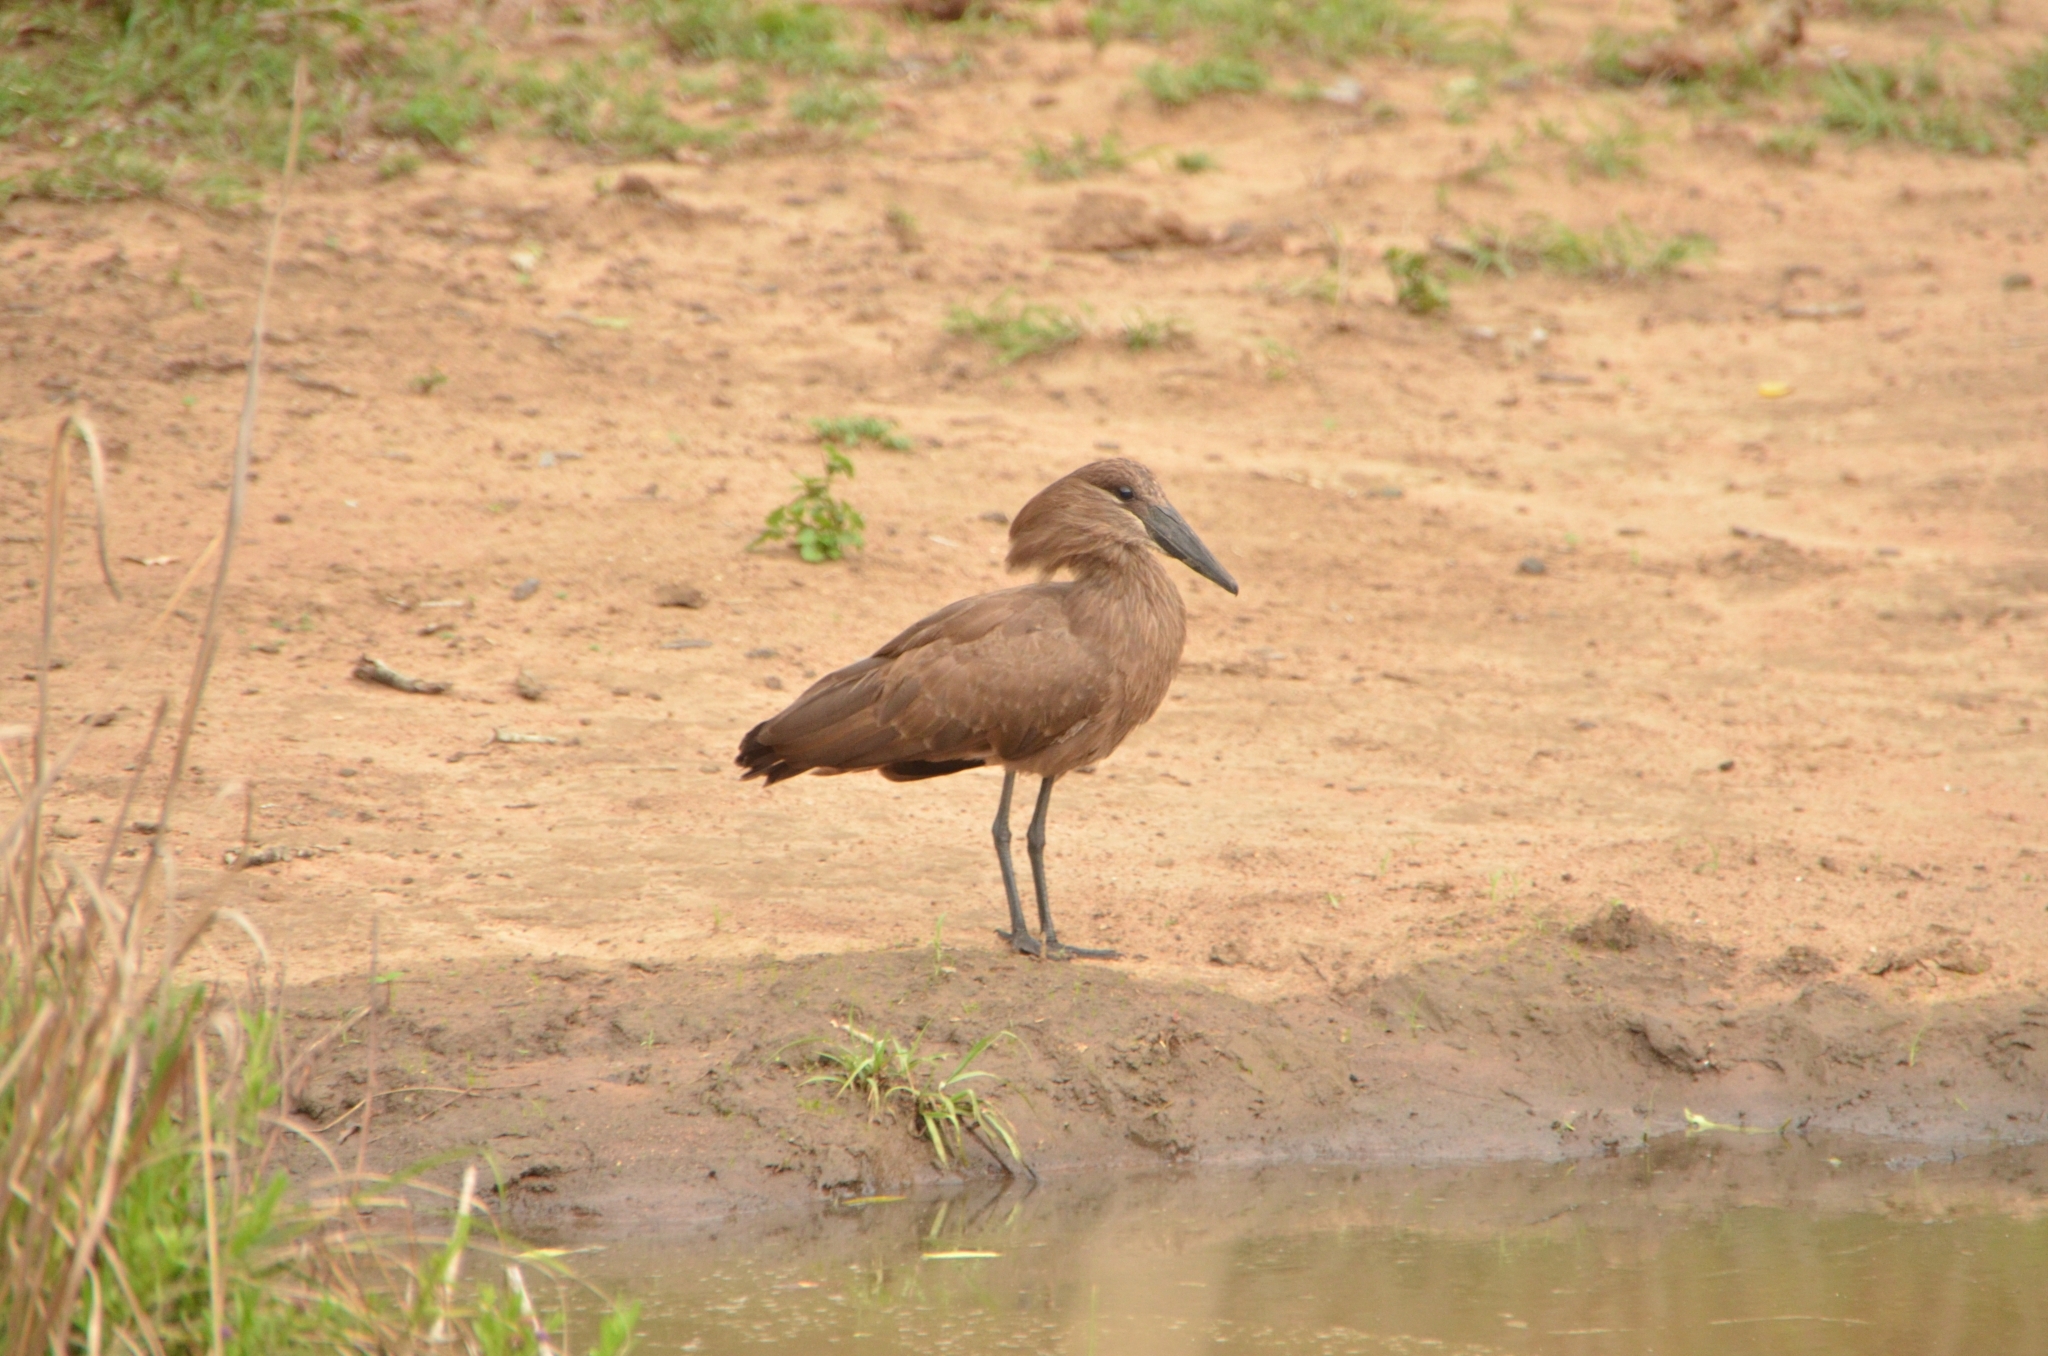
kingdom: Animalia
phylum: Chordata
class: Aves
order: Pelecaniformes
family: Scopidae
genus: Scopus
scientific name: Scopus umbretta
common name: Hamerkop
